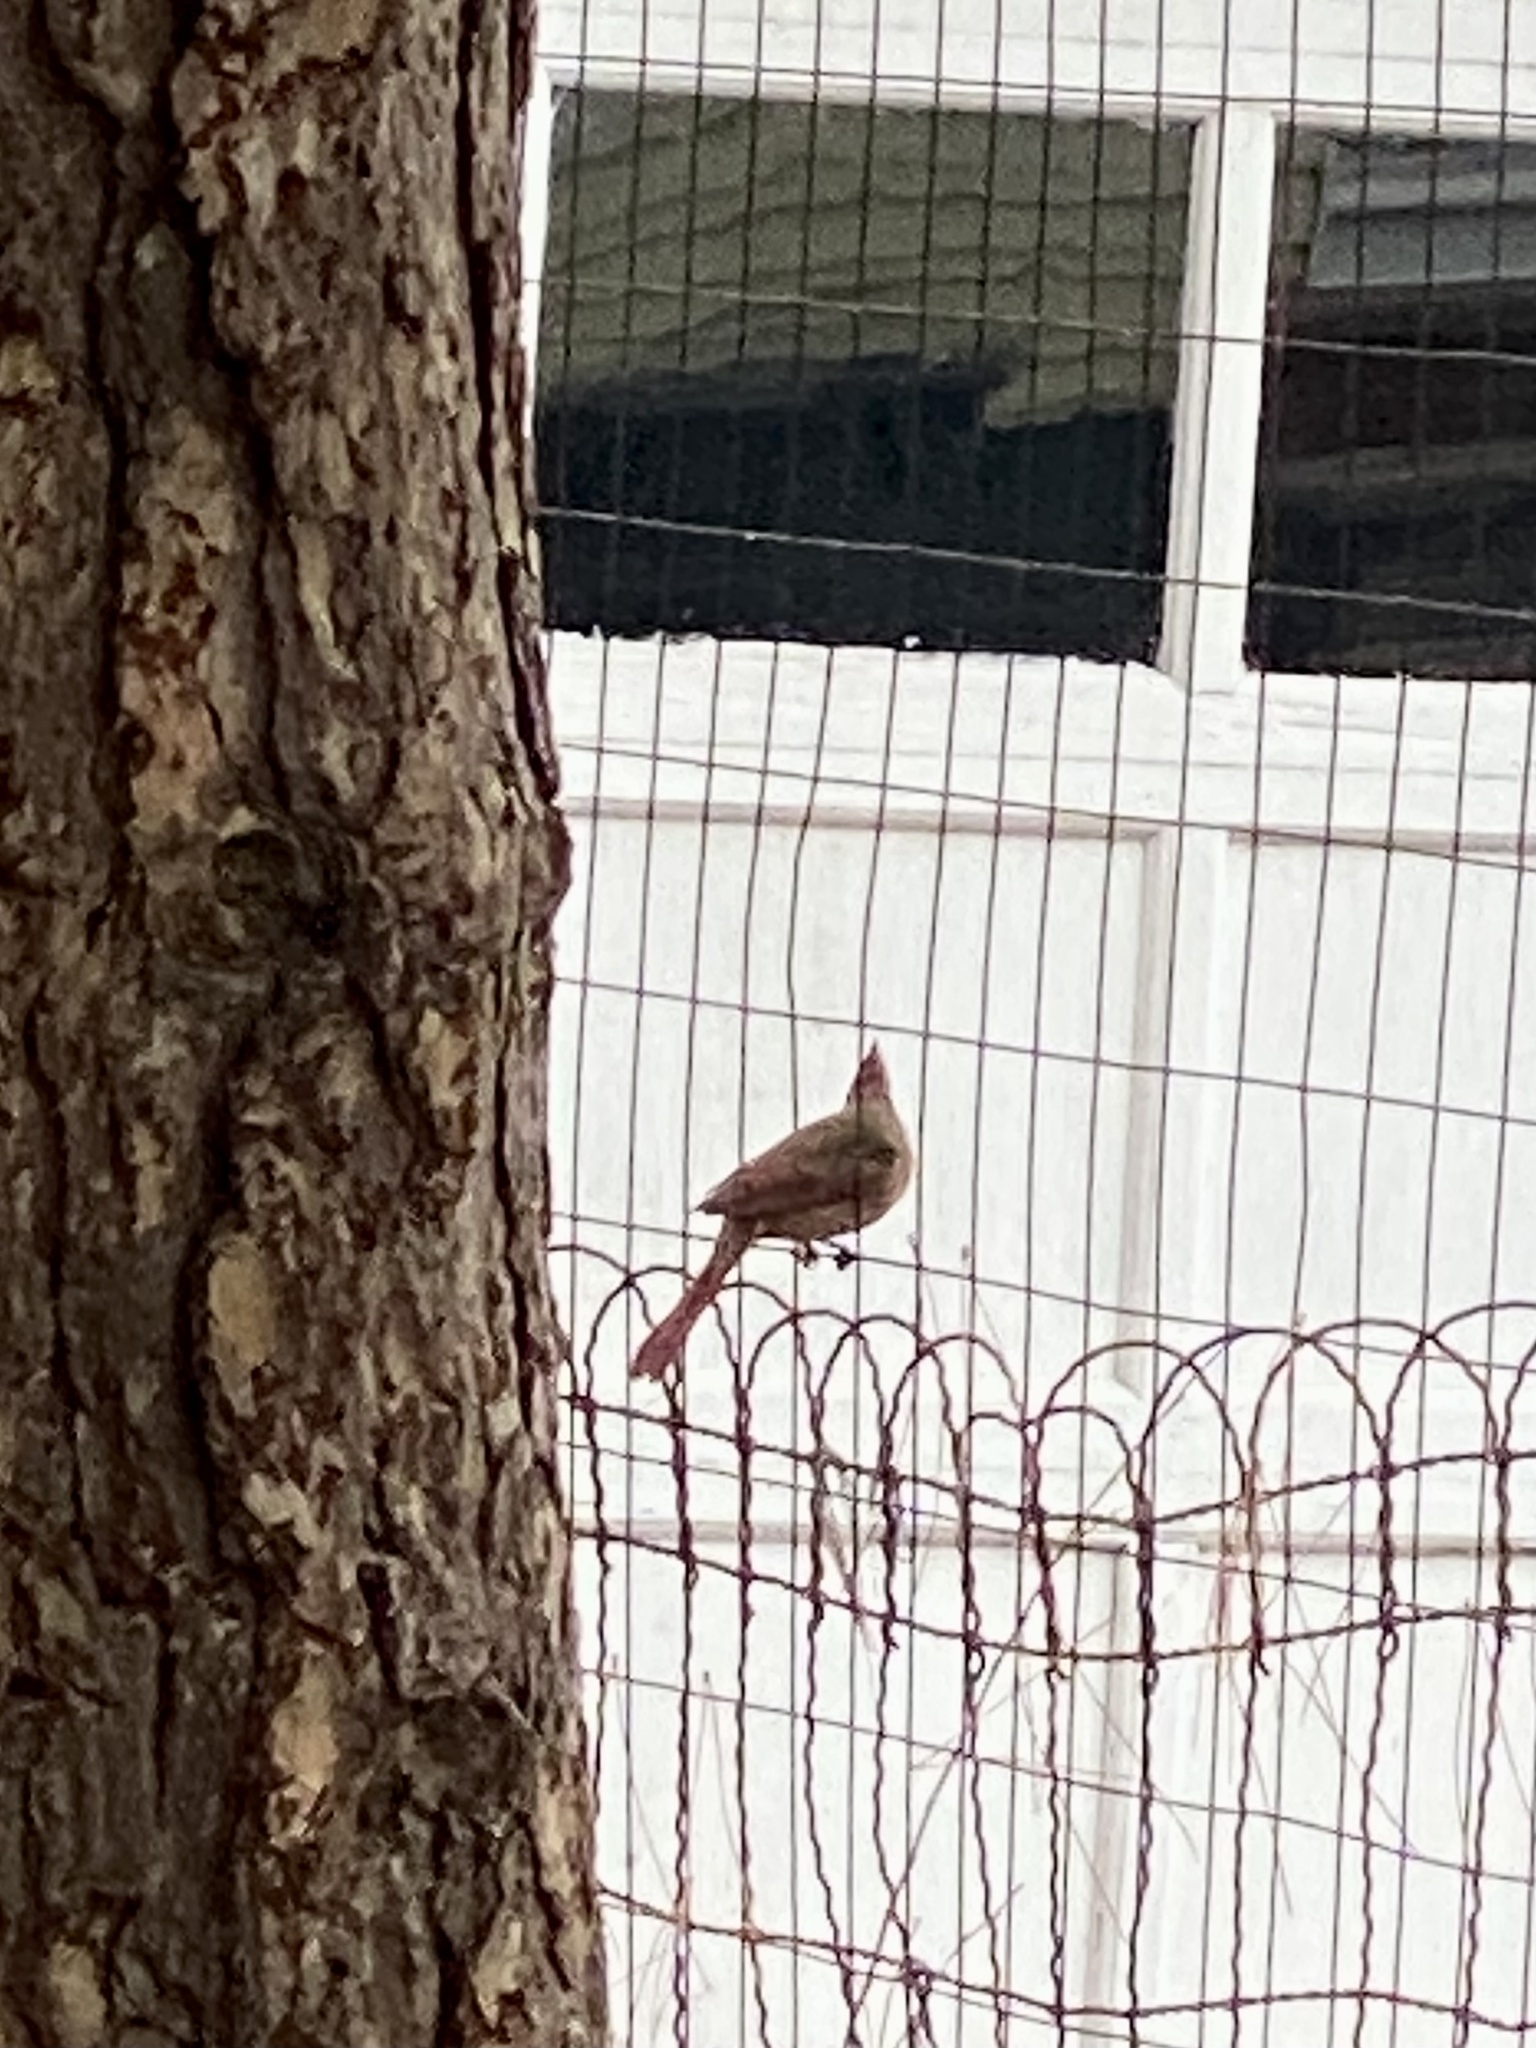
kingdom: Animalia
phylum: Chordata
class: Aves
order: Passeriformes
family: Cardinalidae
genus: Cardinalis
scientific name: Cardinalis cardinalis
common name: Northern cardinal
